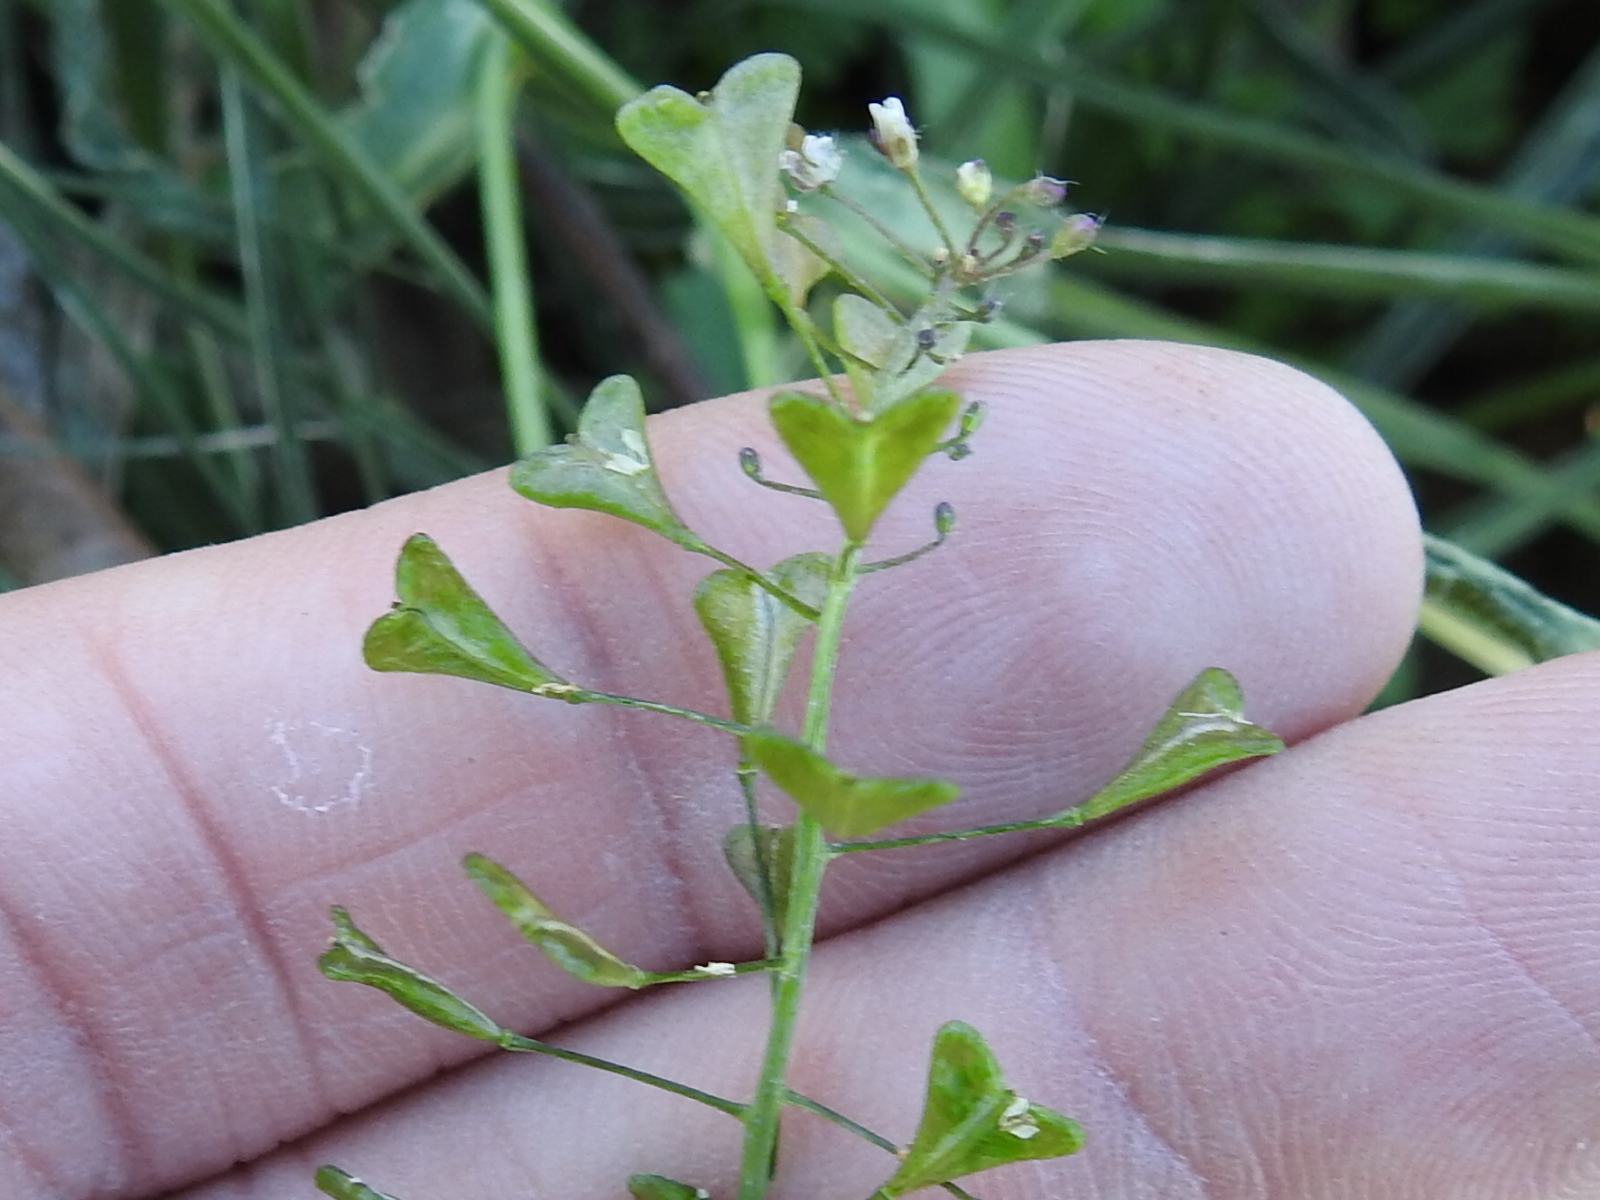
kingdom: Plantae
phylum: Tracheophyta
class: Magnoliopsida
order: Brassicales
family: Brassicaceae
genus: Capsella
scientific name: Capsella bursa-pastoris
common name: Shepherd's purse
